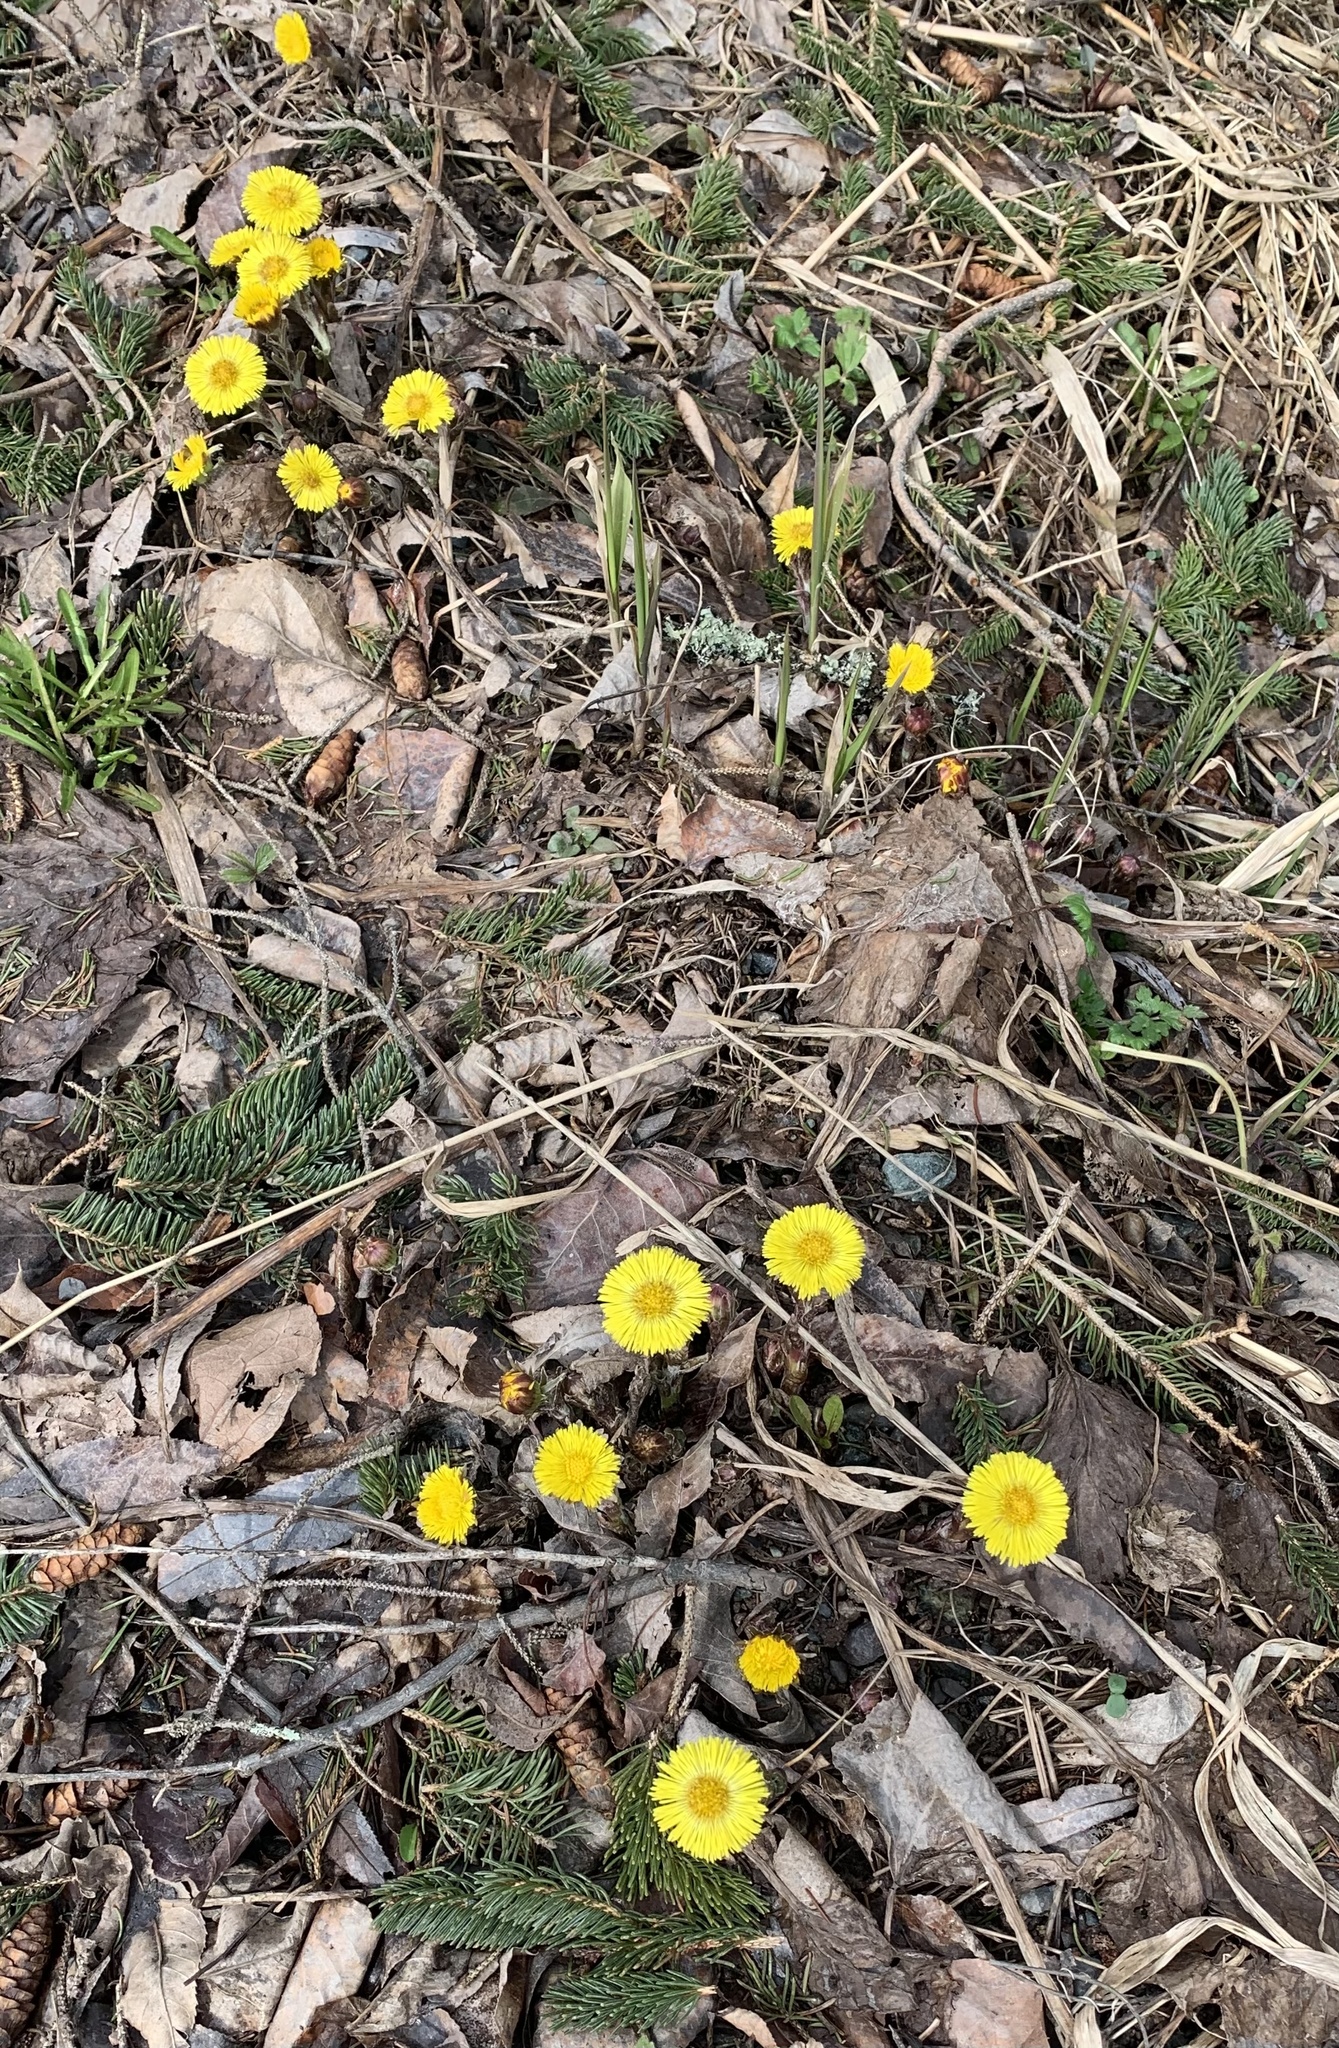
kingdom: Plantae
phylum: Tracheophyta
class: Magnoliopsida
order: Asterales
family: Asteraceae
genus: Tussilago
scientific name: Tussilago farfara
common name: Coltsfoot
